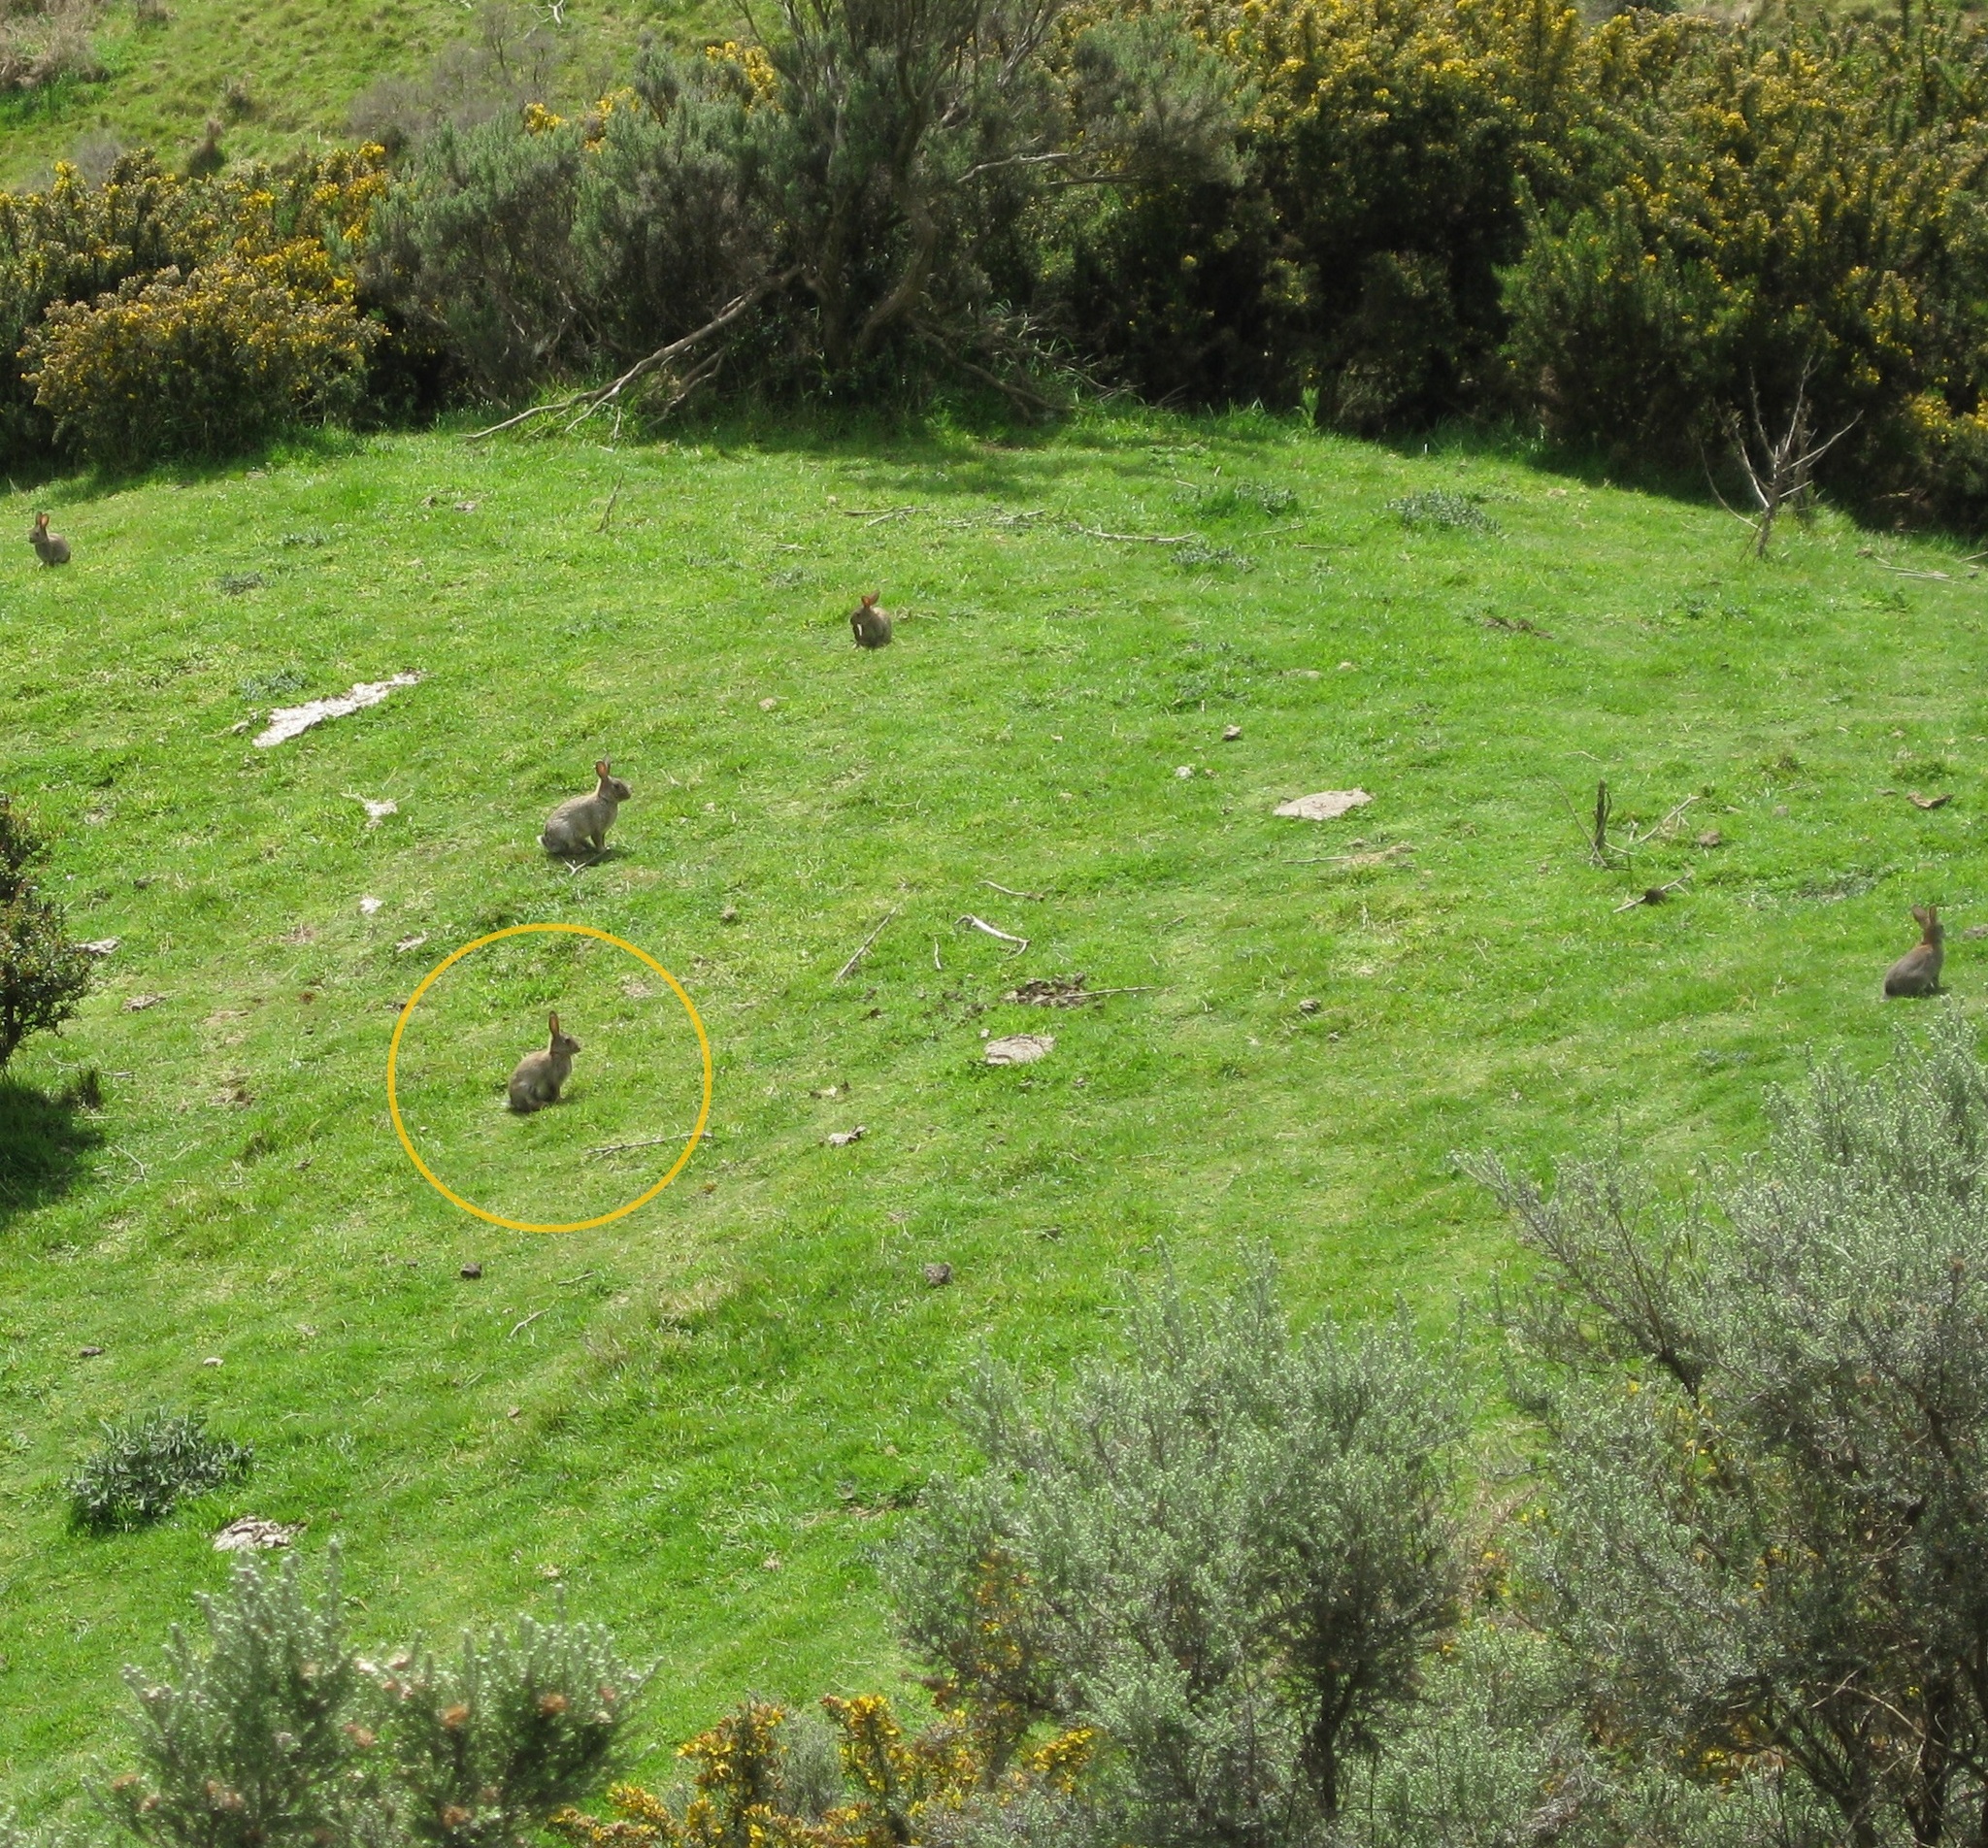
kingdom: Animalia
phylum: Chordata
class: Mammalia
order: Lagomorpha
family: Leporidae
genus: Oryctolagus
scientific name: Oryctolagus cuniculus
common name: European rabbit
